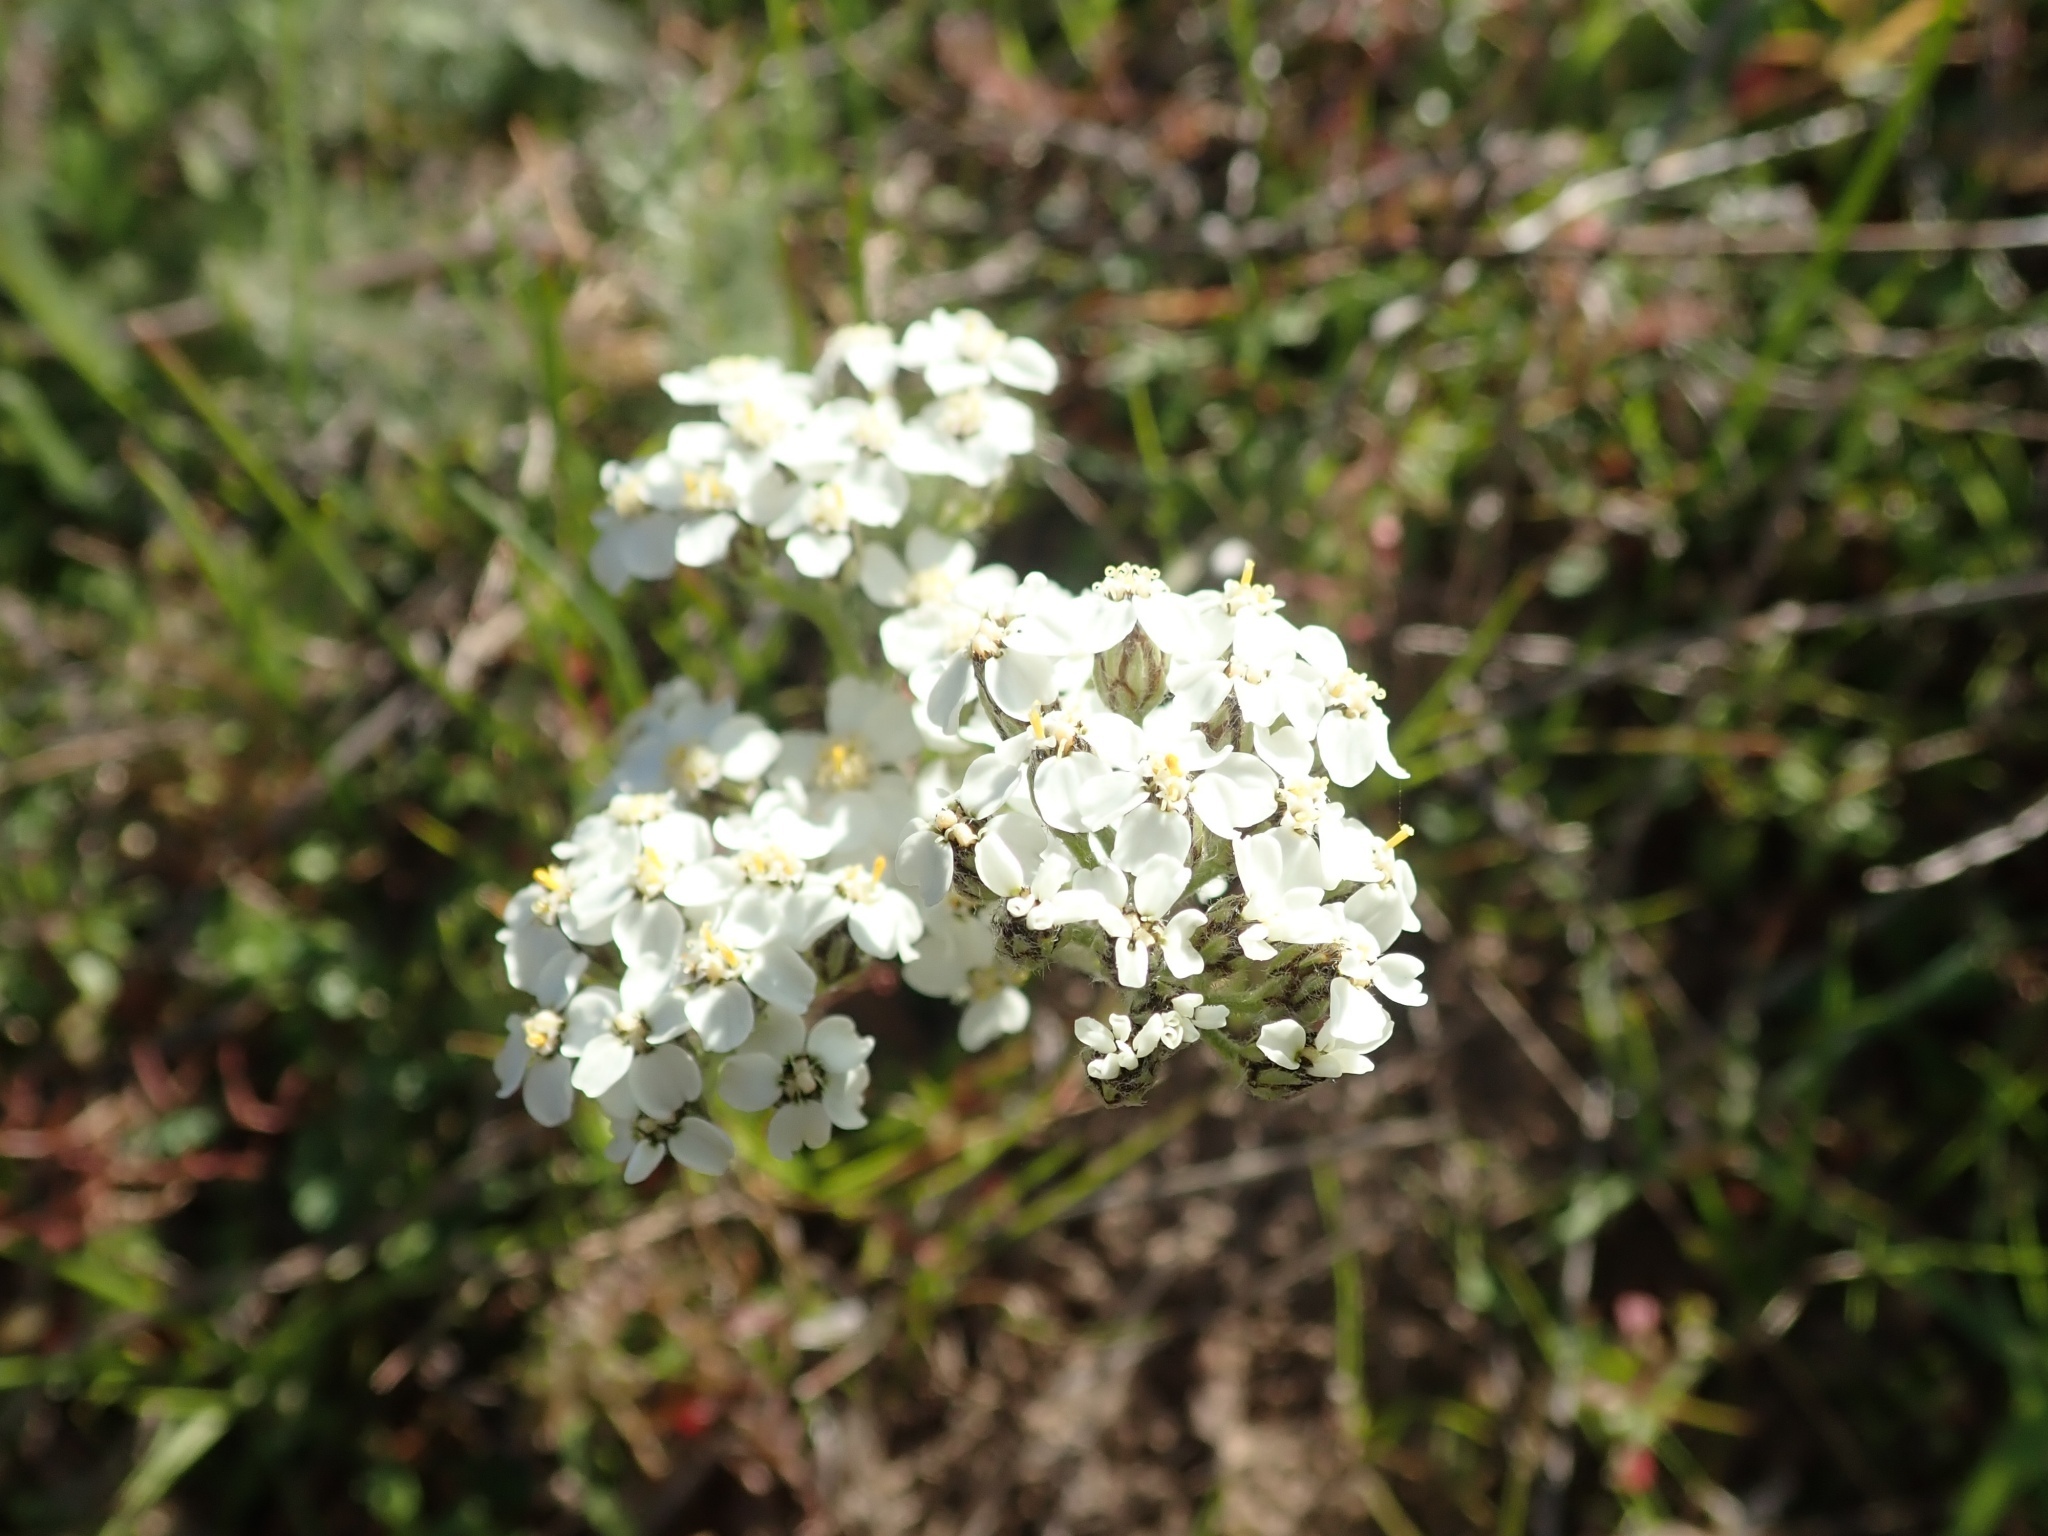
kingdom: Plantae
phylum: Tracheophyta
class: Magnoliopsida
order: Asterales
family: Asteraceae
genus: Achillea
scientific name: Achillea millefolium
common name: Yarrow
